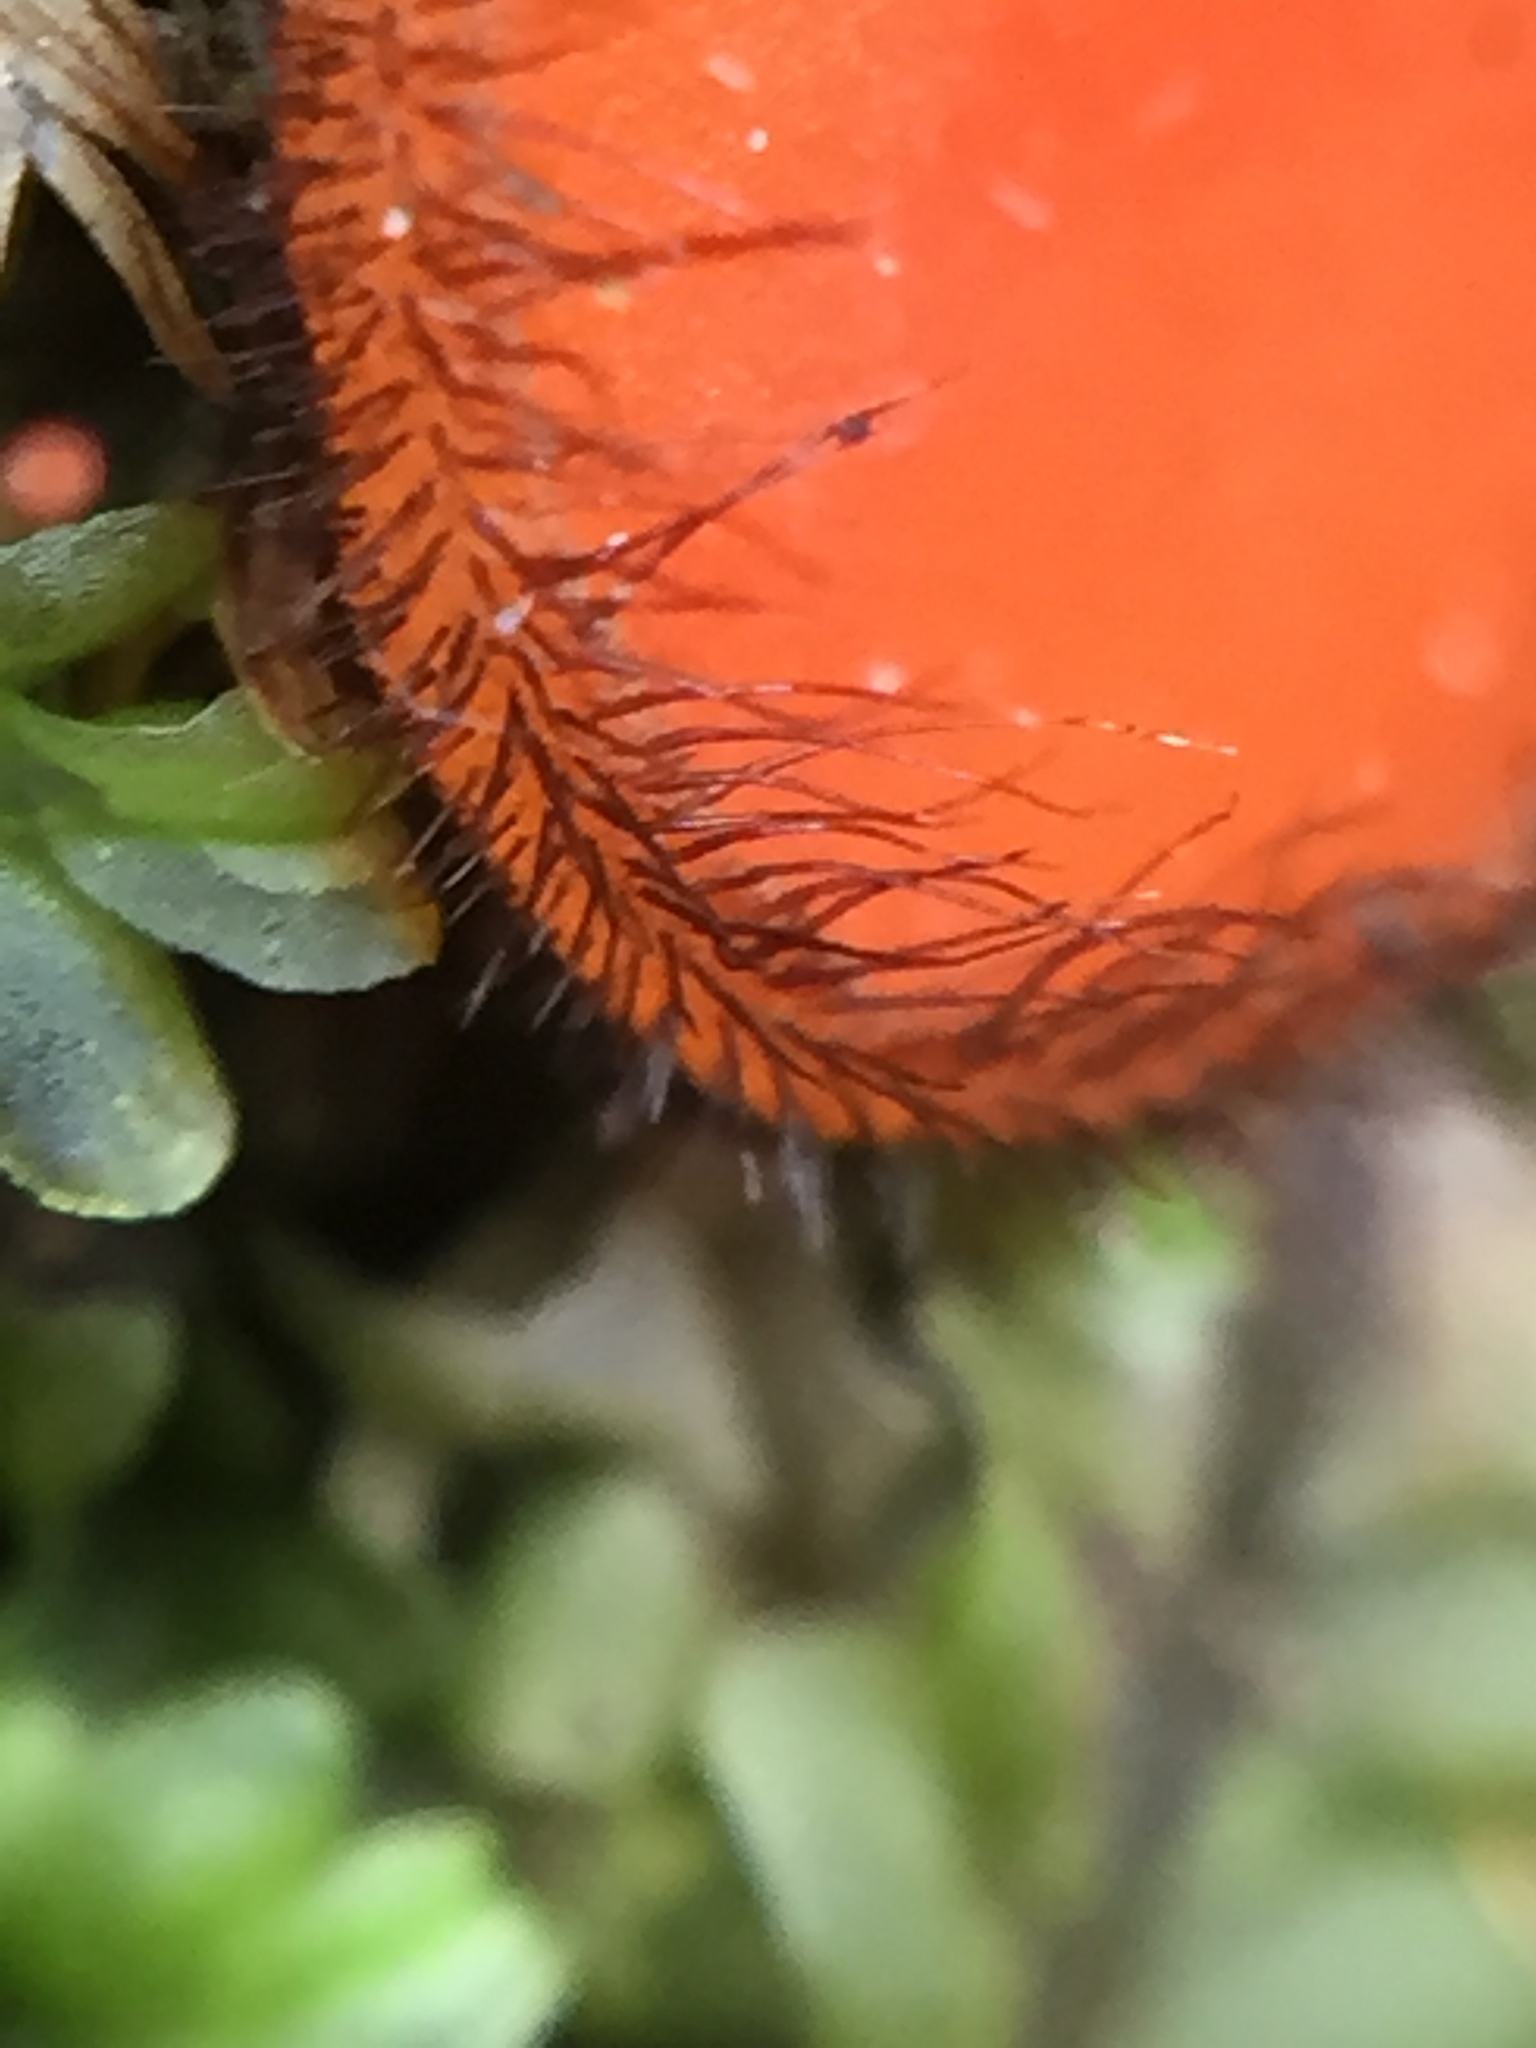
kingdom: Fungi
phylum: Ascomycota
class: Pezizomycetes
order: Pezizales
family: Pyronemataceae
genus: Scutellinia
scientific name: Scutellinia
